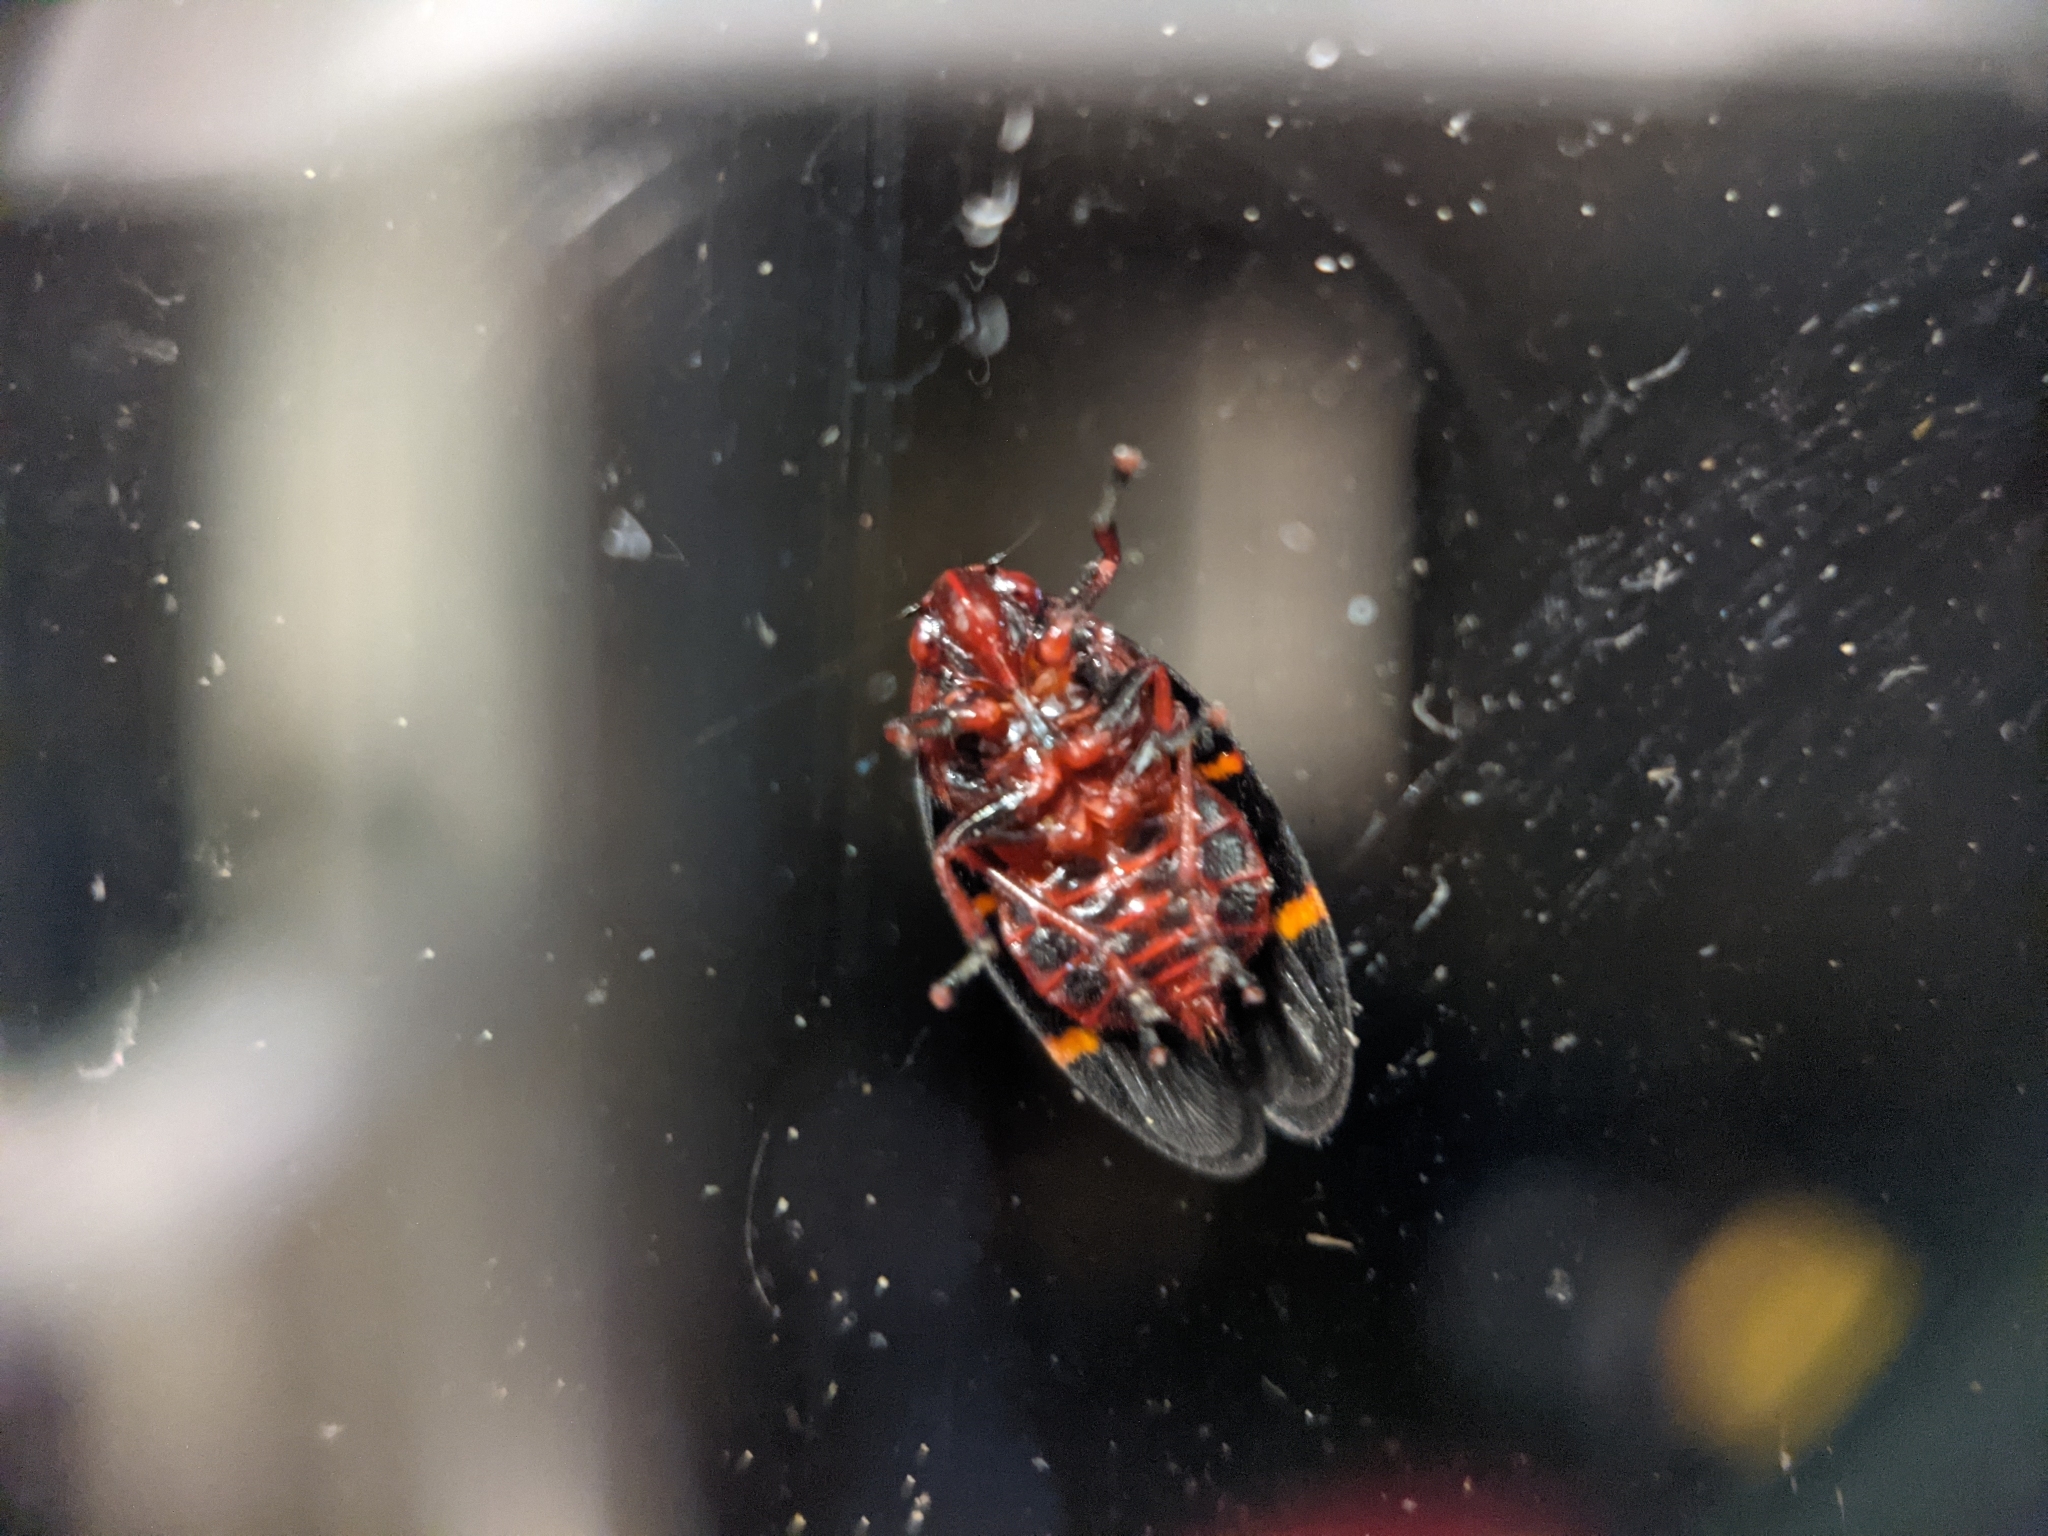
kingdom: Animalia
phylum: Arthropoda
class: Insecta
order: Hemiptera
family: Cercopidae
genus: Prosapia
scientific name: Prosapia bicincta
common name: Twolined spittlebug
